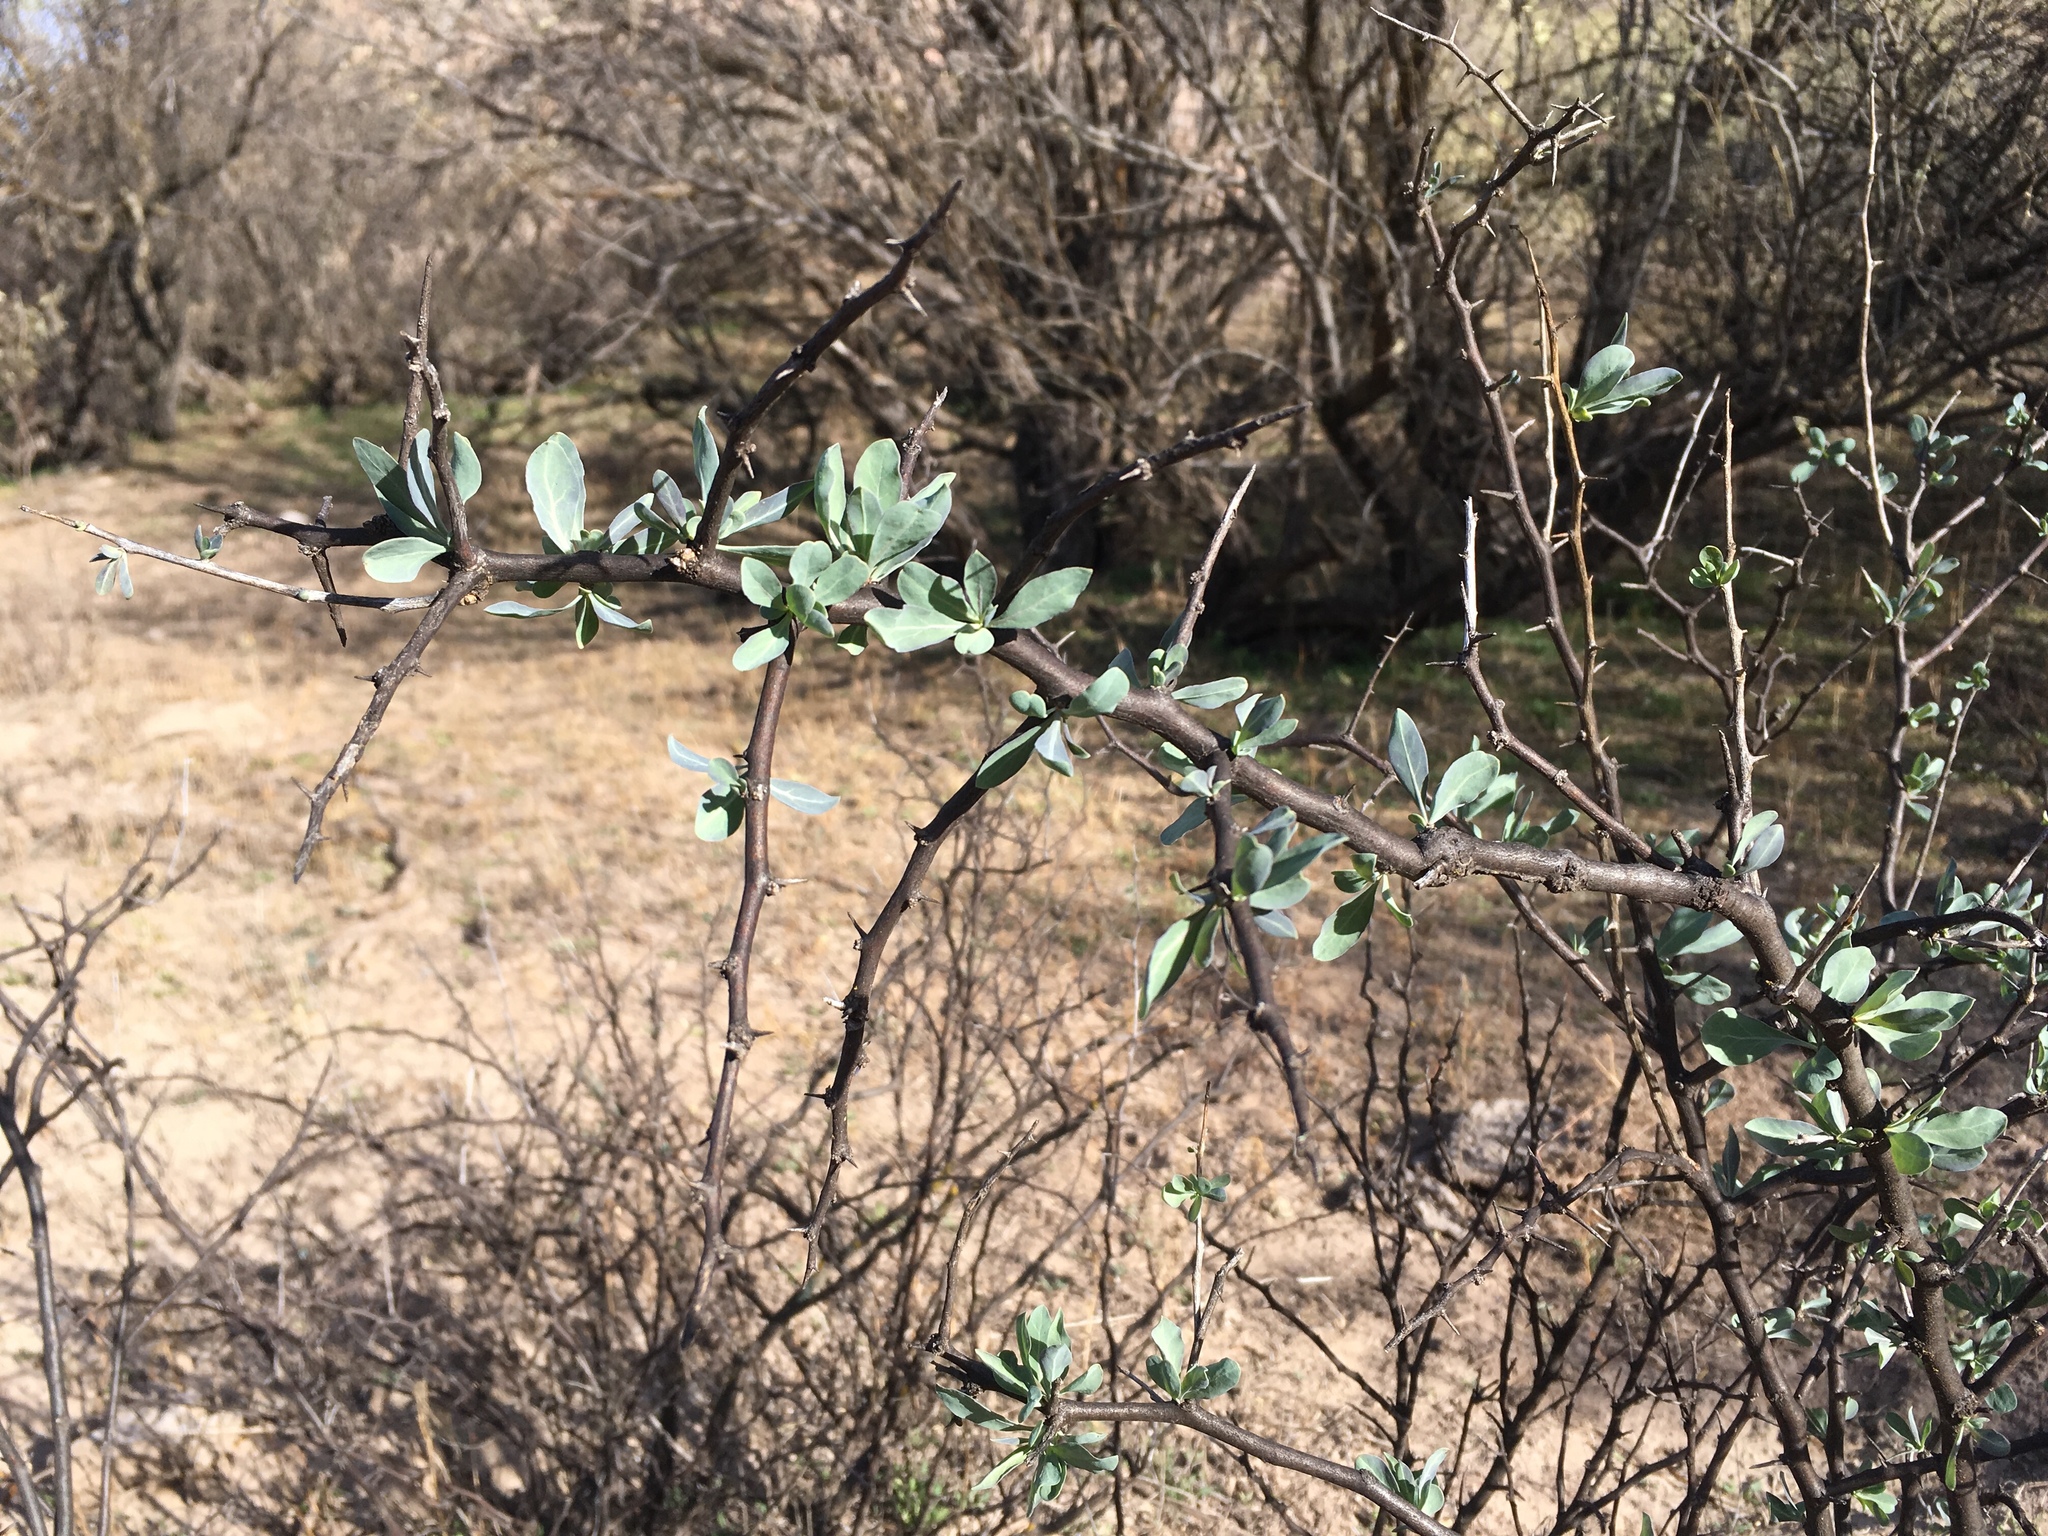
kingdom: Plantae
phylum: Tracheophyta
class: Magnoliopsida
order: Solanales
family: Solanaceae
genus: Lycium
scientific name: Lycium pallidum
